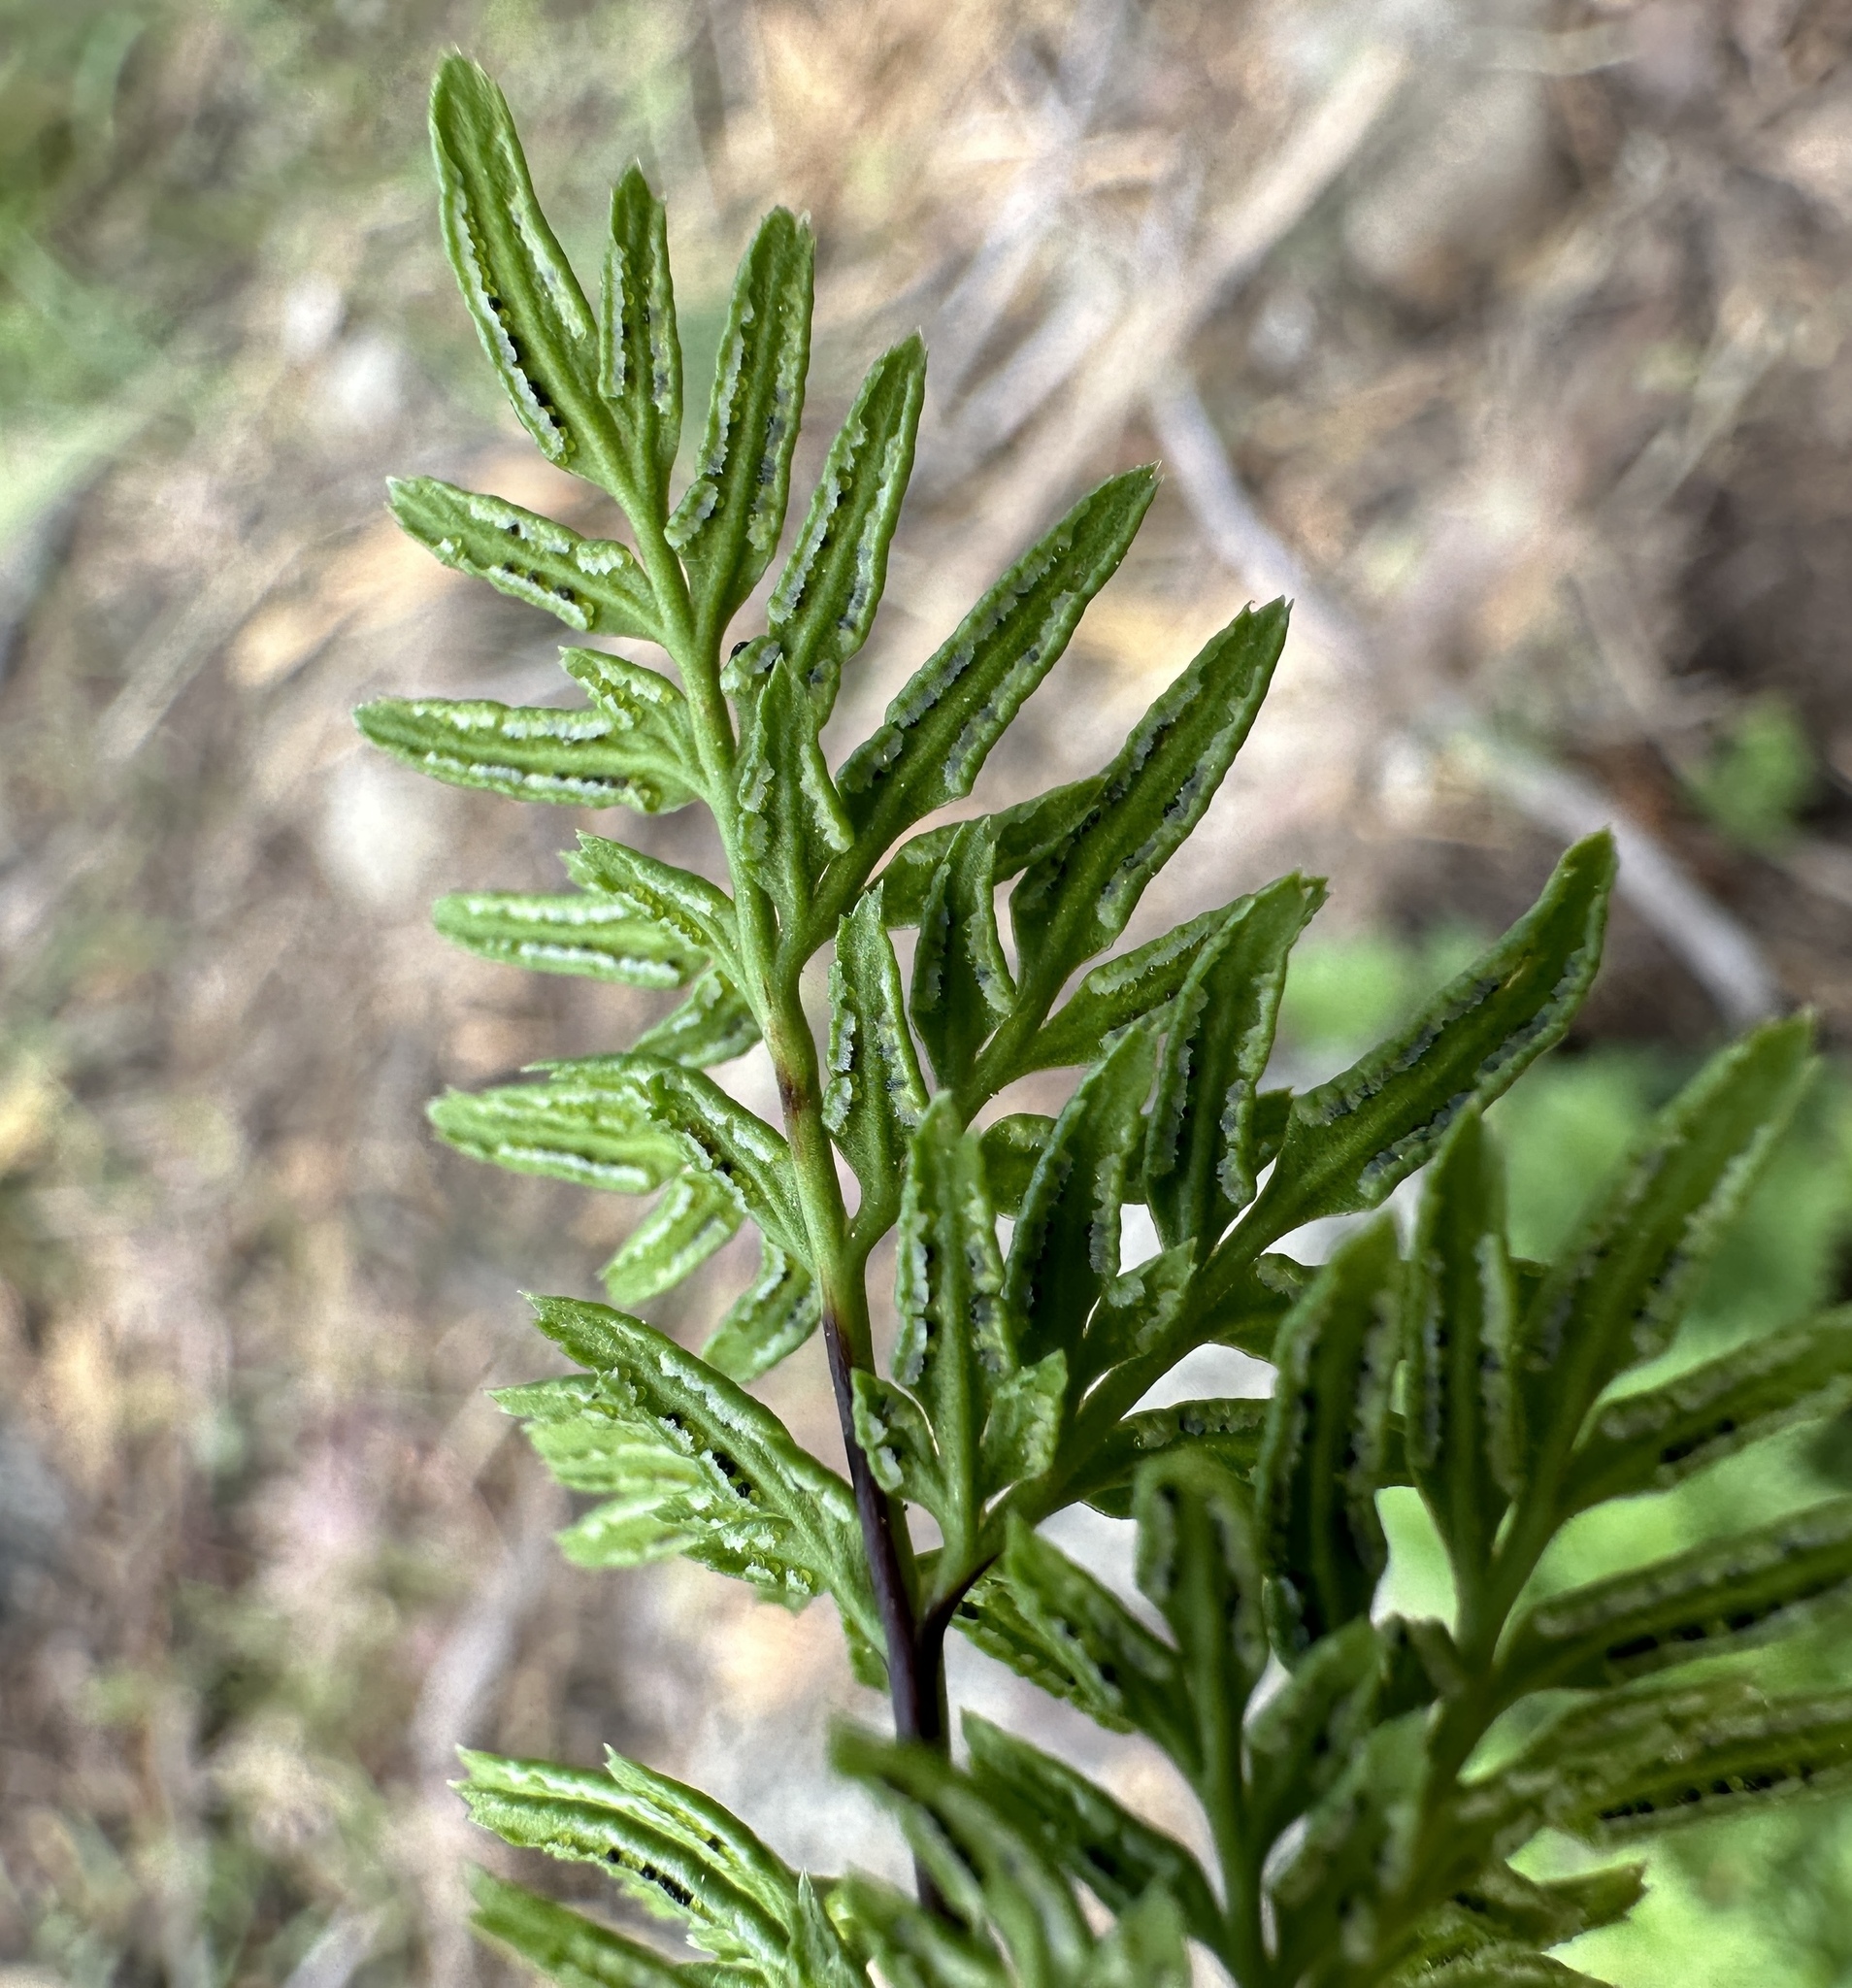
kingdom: Plantae
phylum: Tracheophyta
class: Polypodiopsida
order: Polypodiales
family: Pteridaceae
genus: Aspidotis
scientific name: Aspidotis densa
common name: Indian's dream
